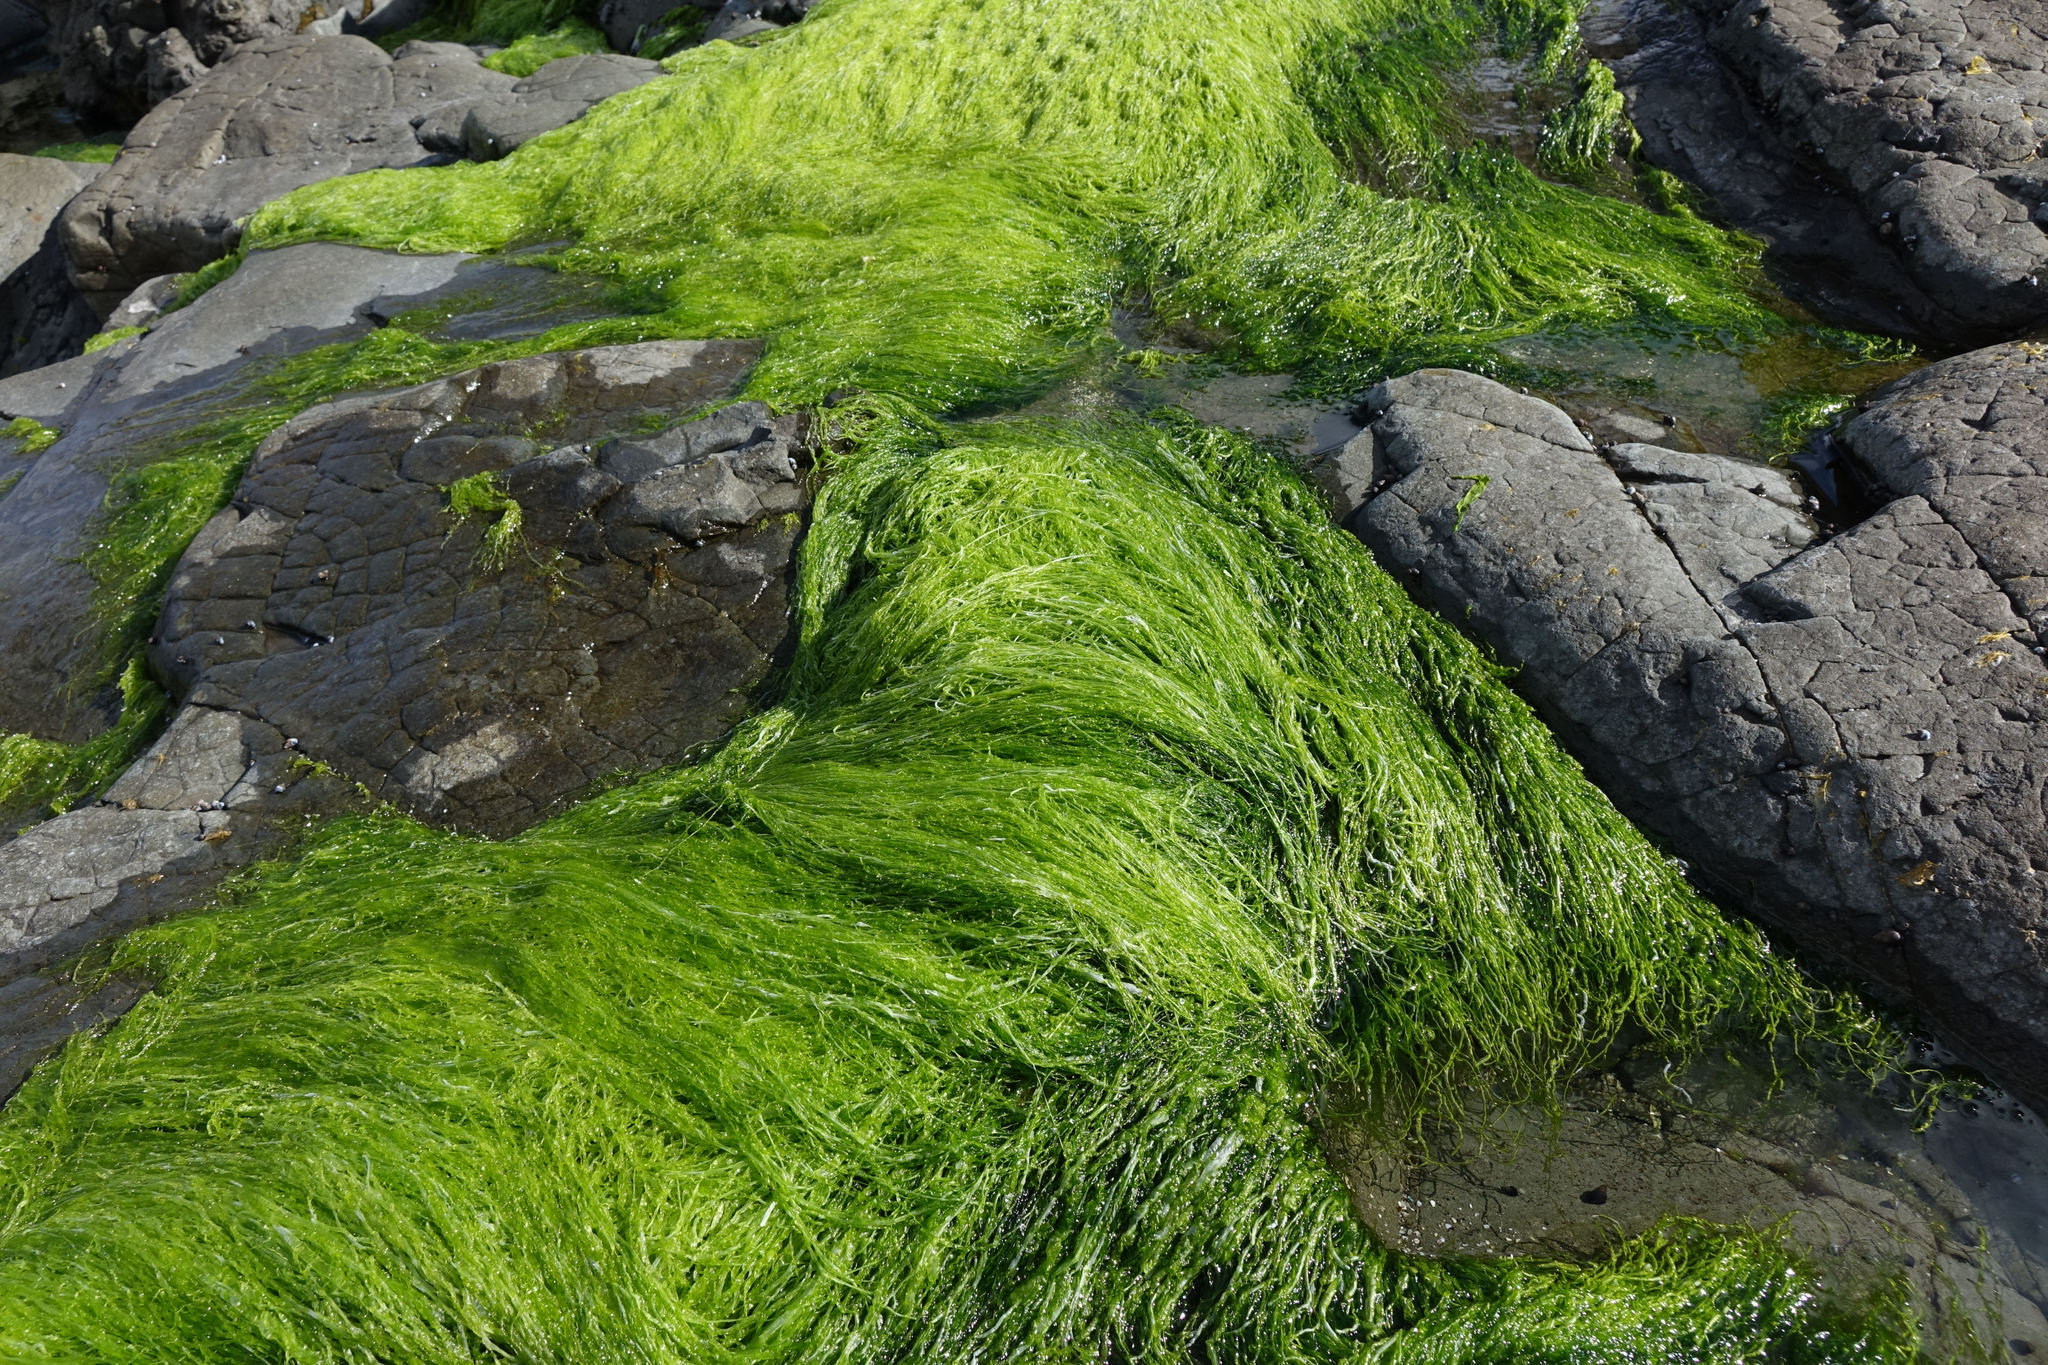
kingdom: Plantae
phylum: Chlorophyta
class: Ulvophyceae
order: Ulvales
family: Ulvaceae
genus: Ulva
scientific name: Ulva intestinalis
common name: Gut weed
